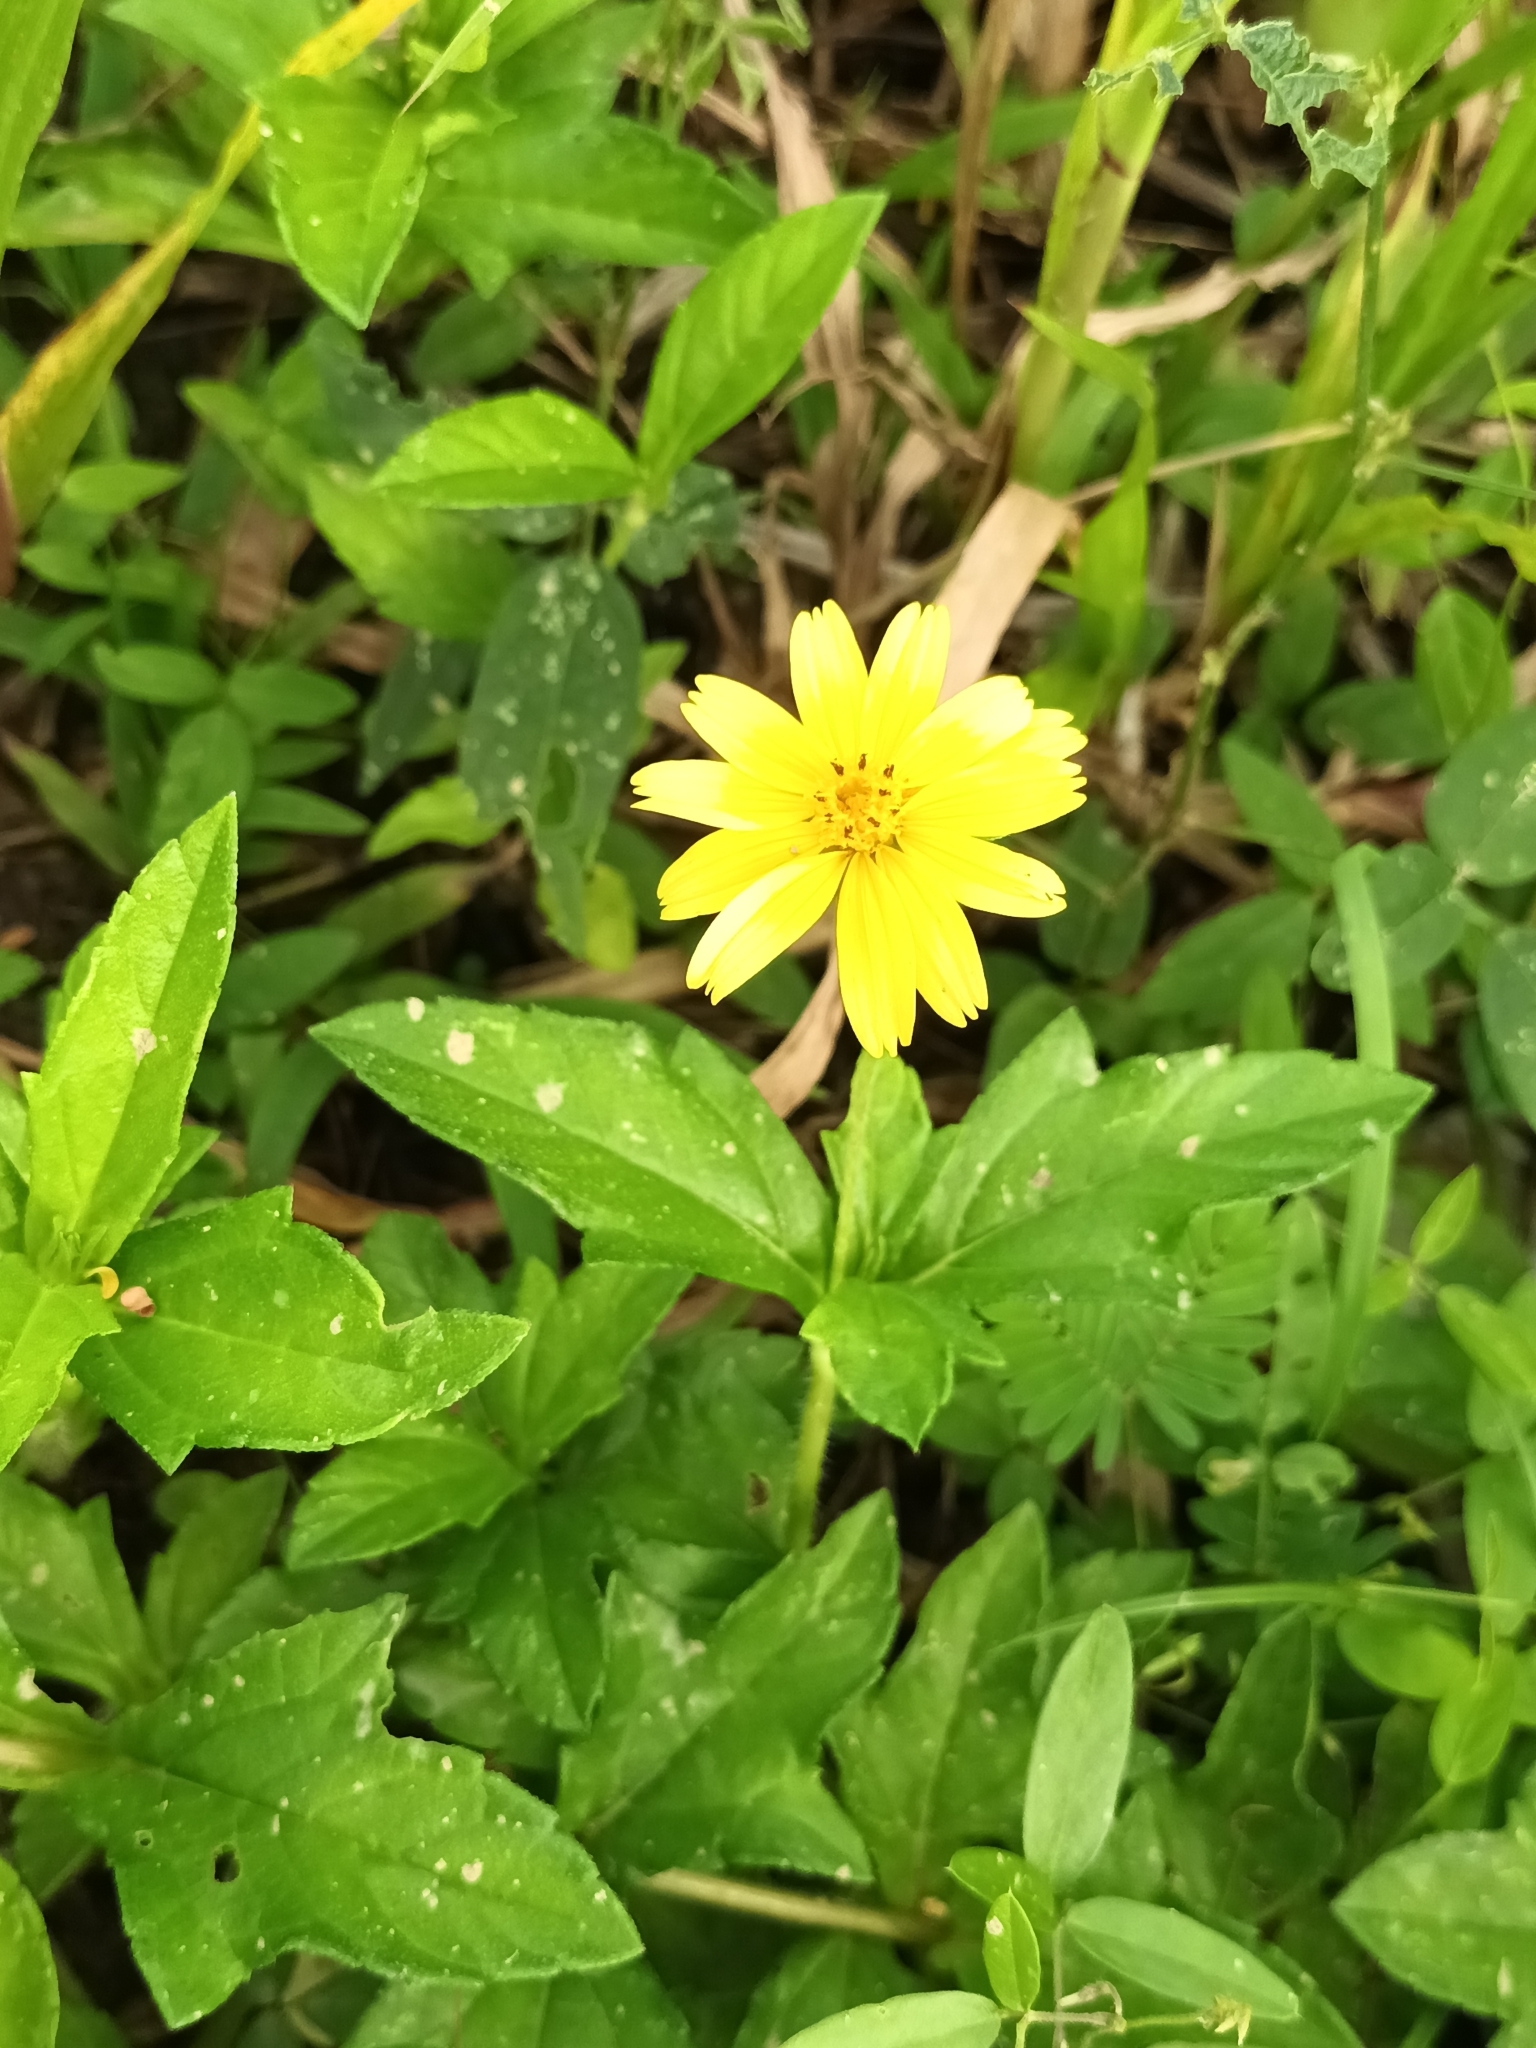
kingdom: Plantae
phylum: Tracheophyta
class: Magnoliopsida
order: Asterales
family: Asteraceae
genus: Sphagneticola
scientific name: Sphagneticola trilobata
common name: Bay biscayne creeping-oxeye
